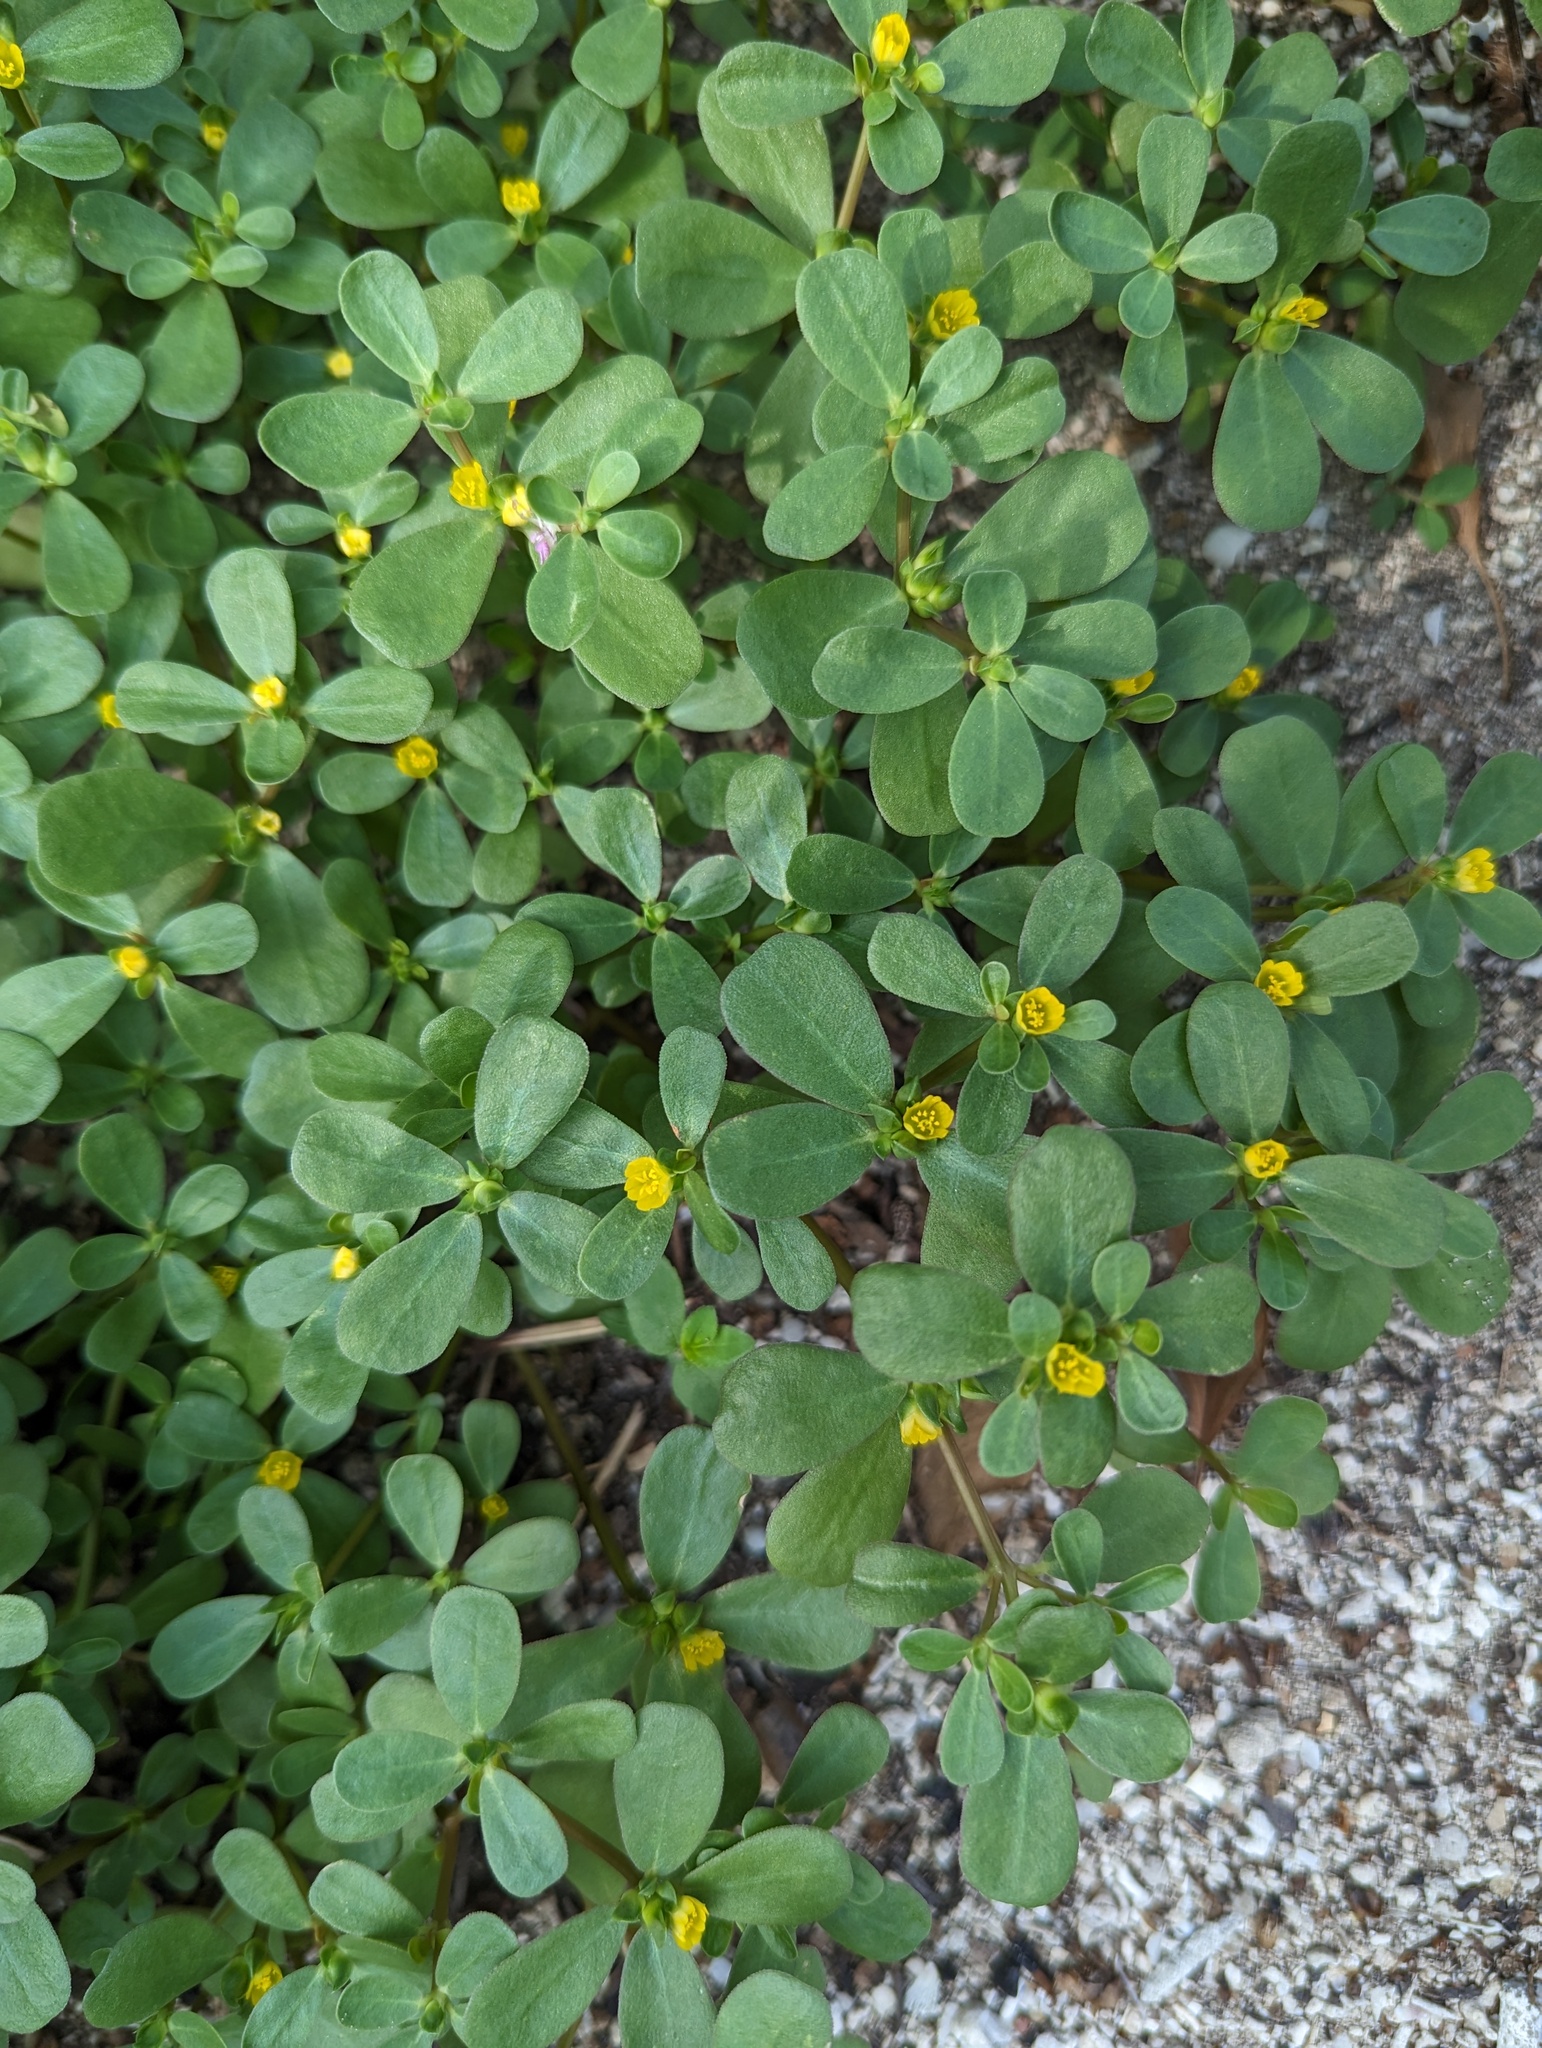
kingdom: Plantae
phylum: Tracheophyta
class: Magnoliopsida
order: Caryophyllales
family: Portulacaceae
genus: Portulaca
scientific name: Portulaca oleracea
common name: Common purslane
